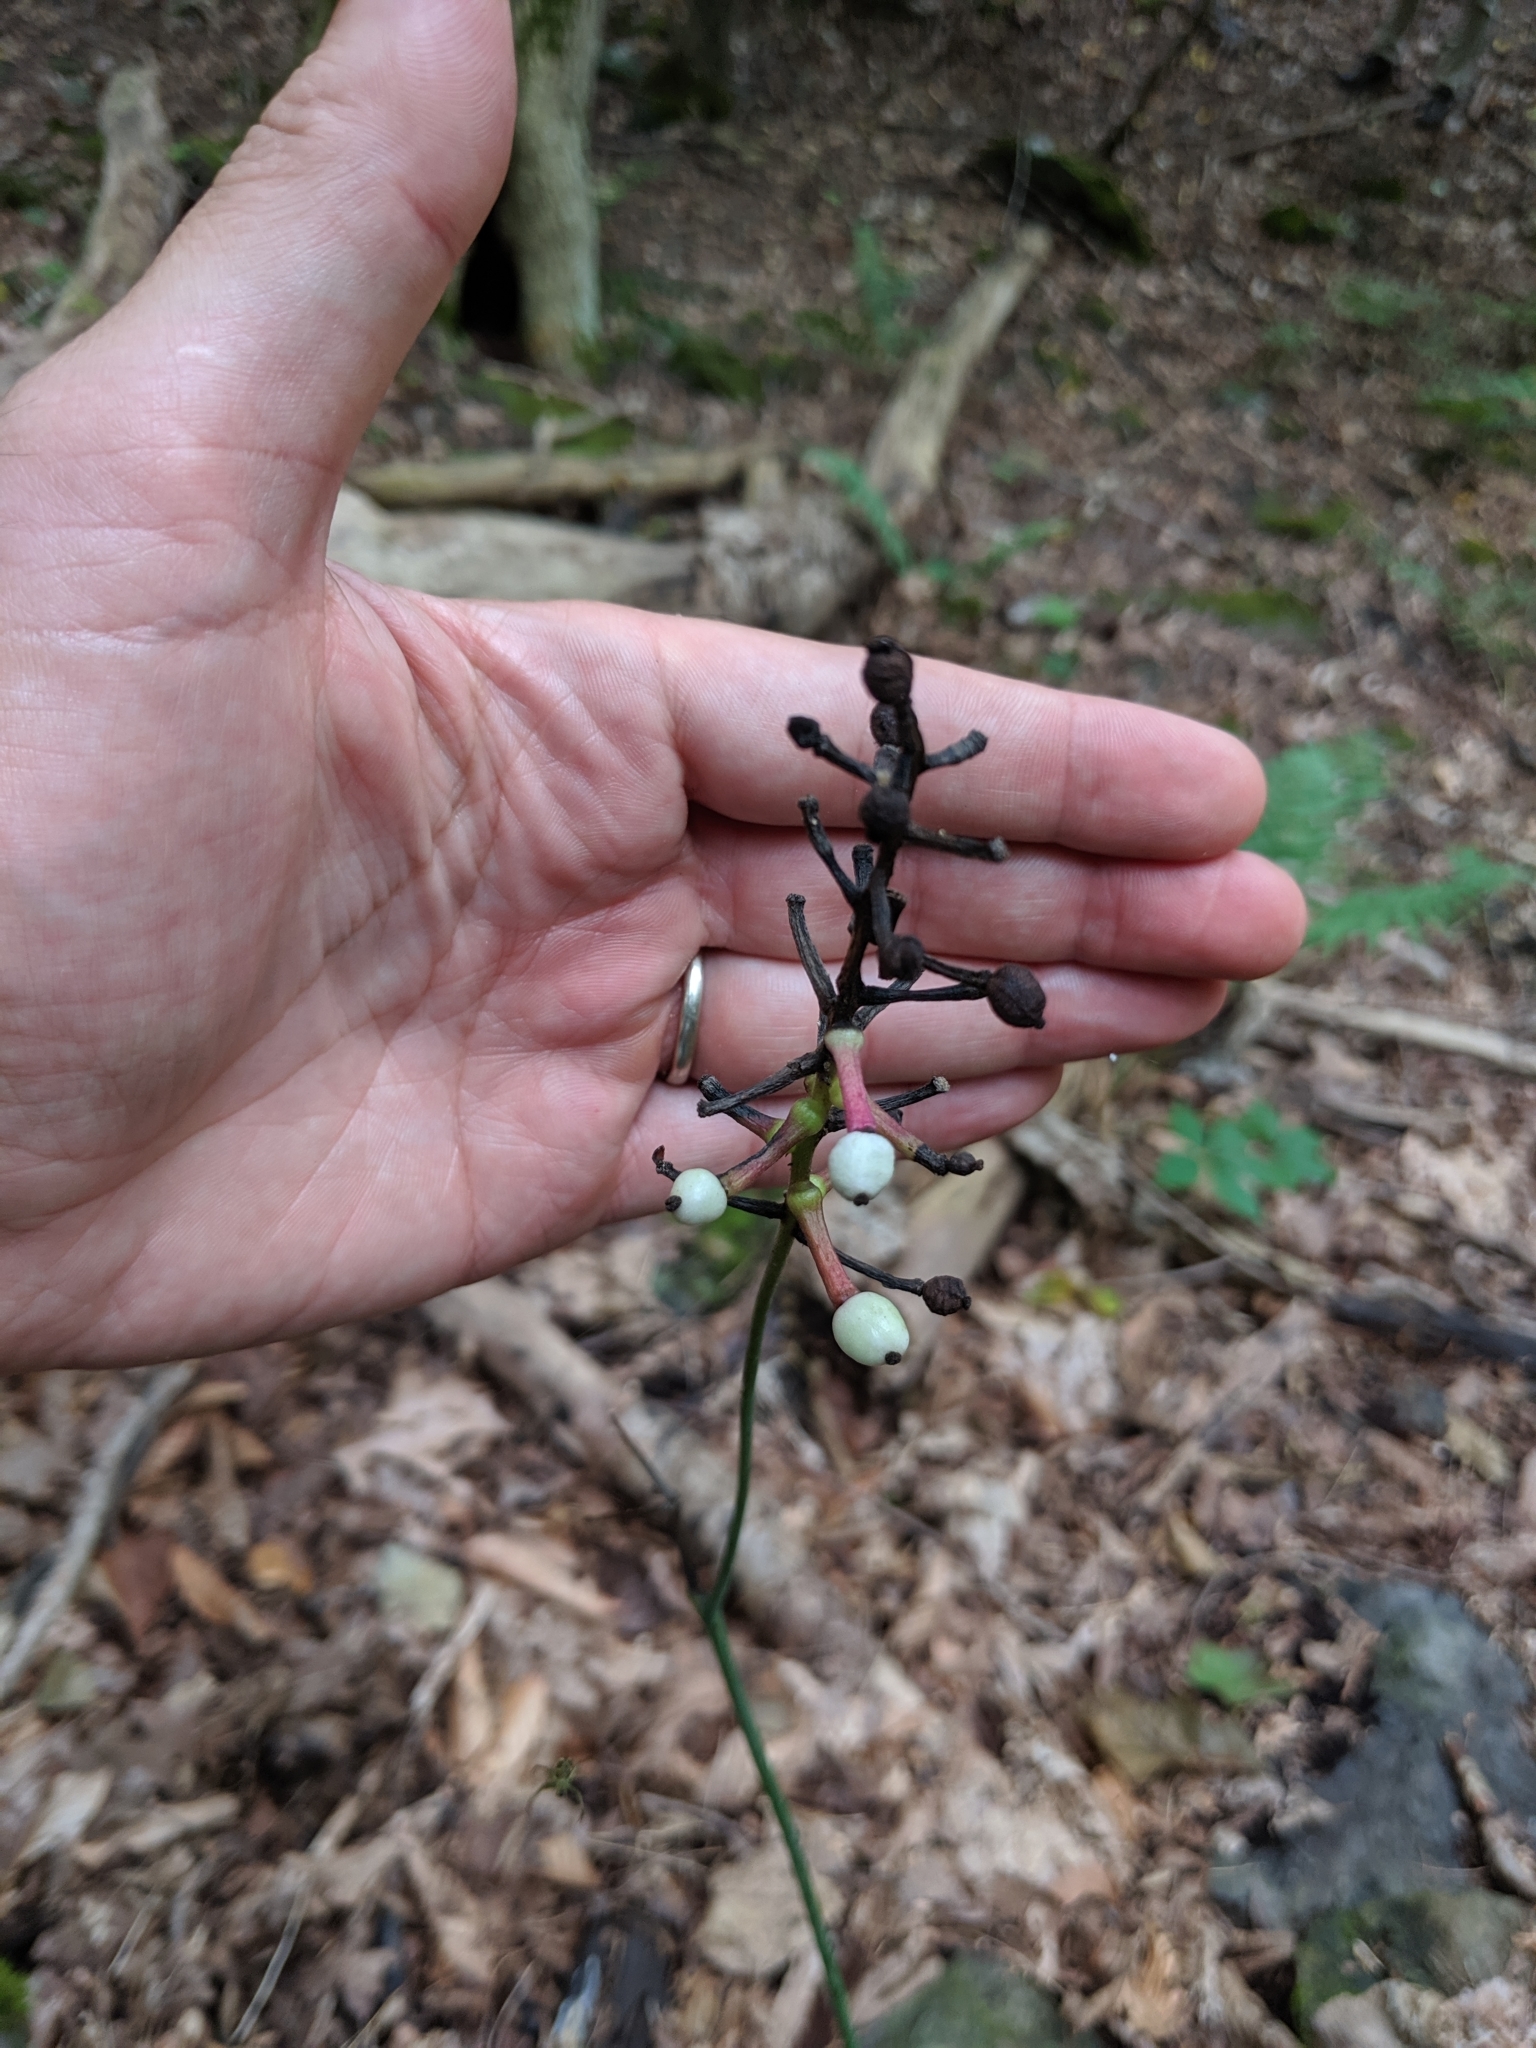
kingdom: Plantae
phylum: Tracheophyta
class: Magnoliopsida
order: Ranunculales
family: Ranunculaceae
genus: Actaea
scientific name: Actaea pachypoda
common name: Doll's-eyes
